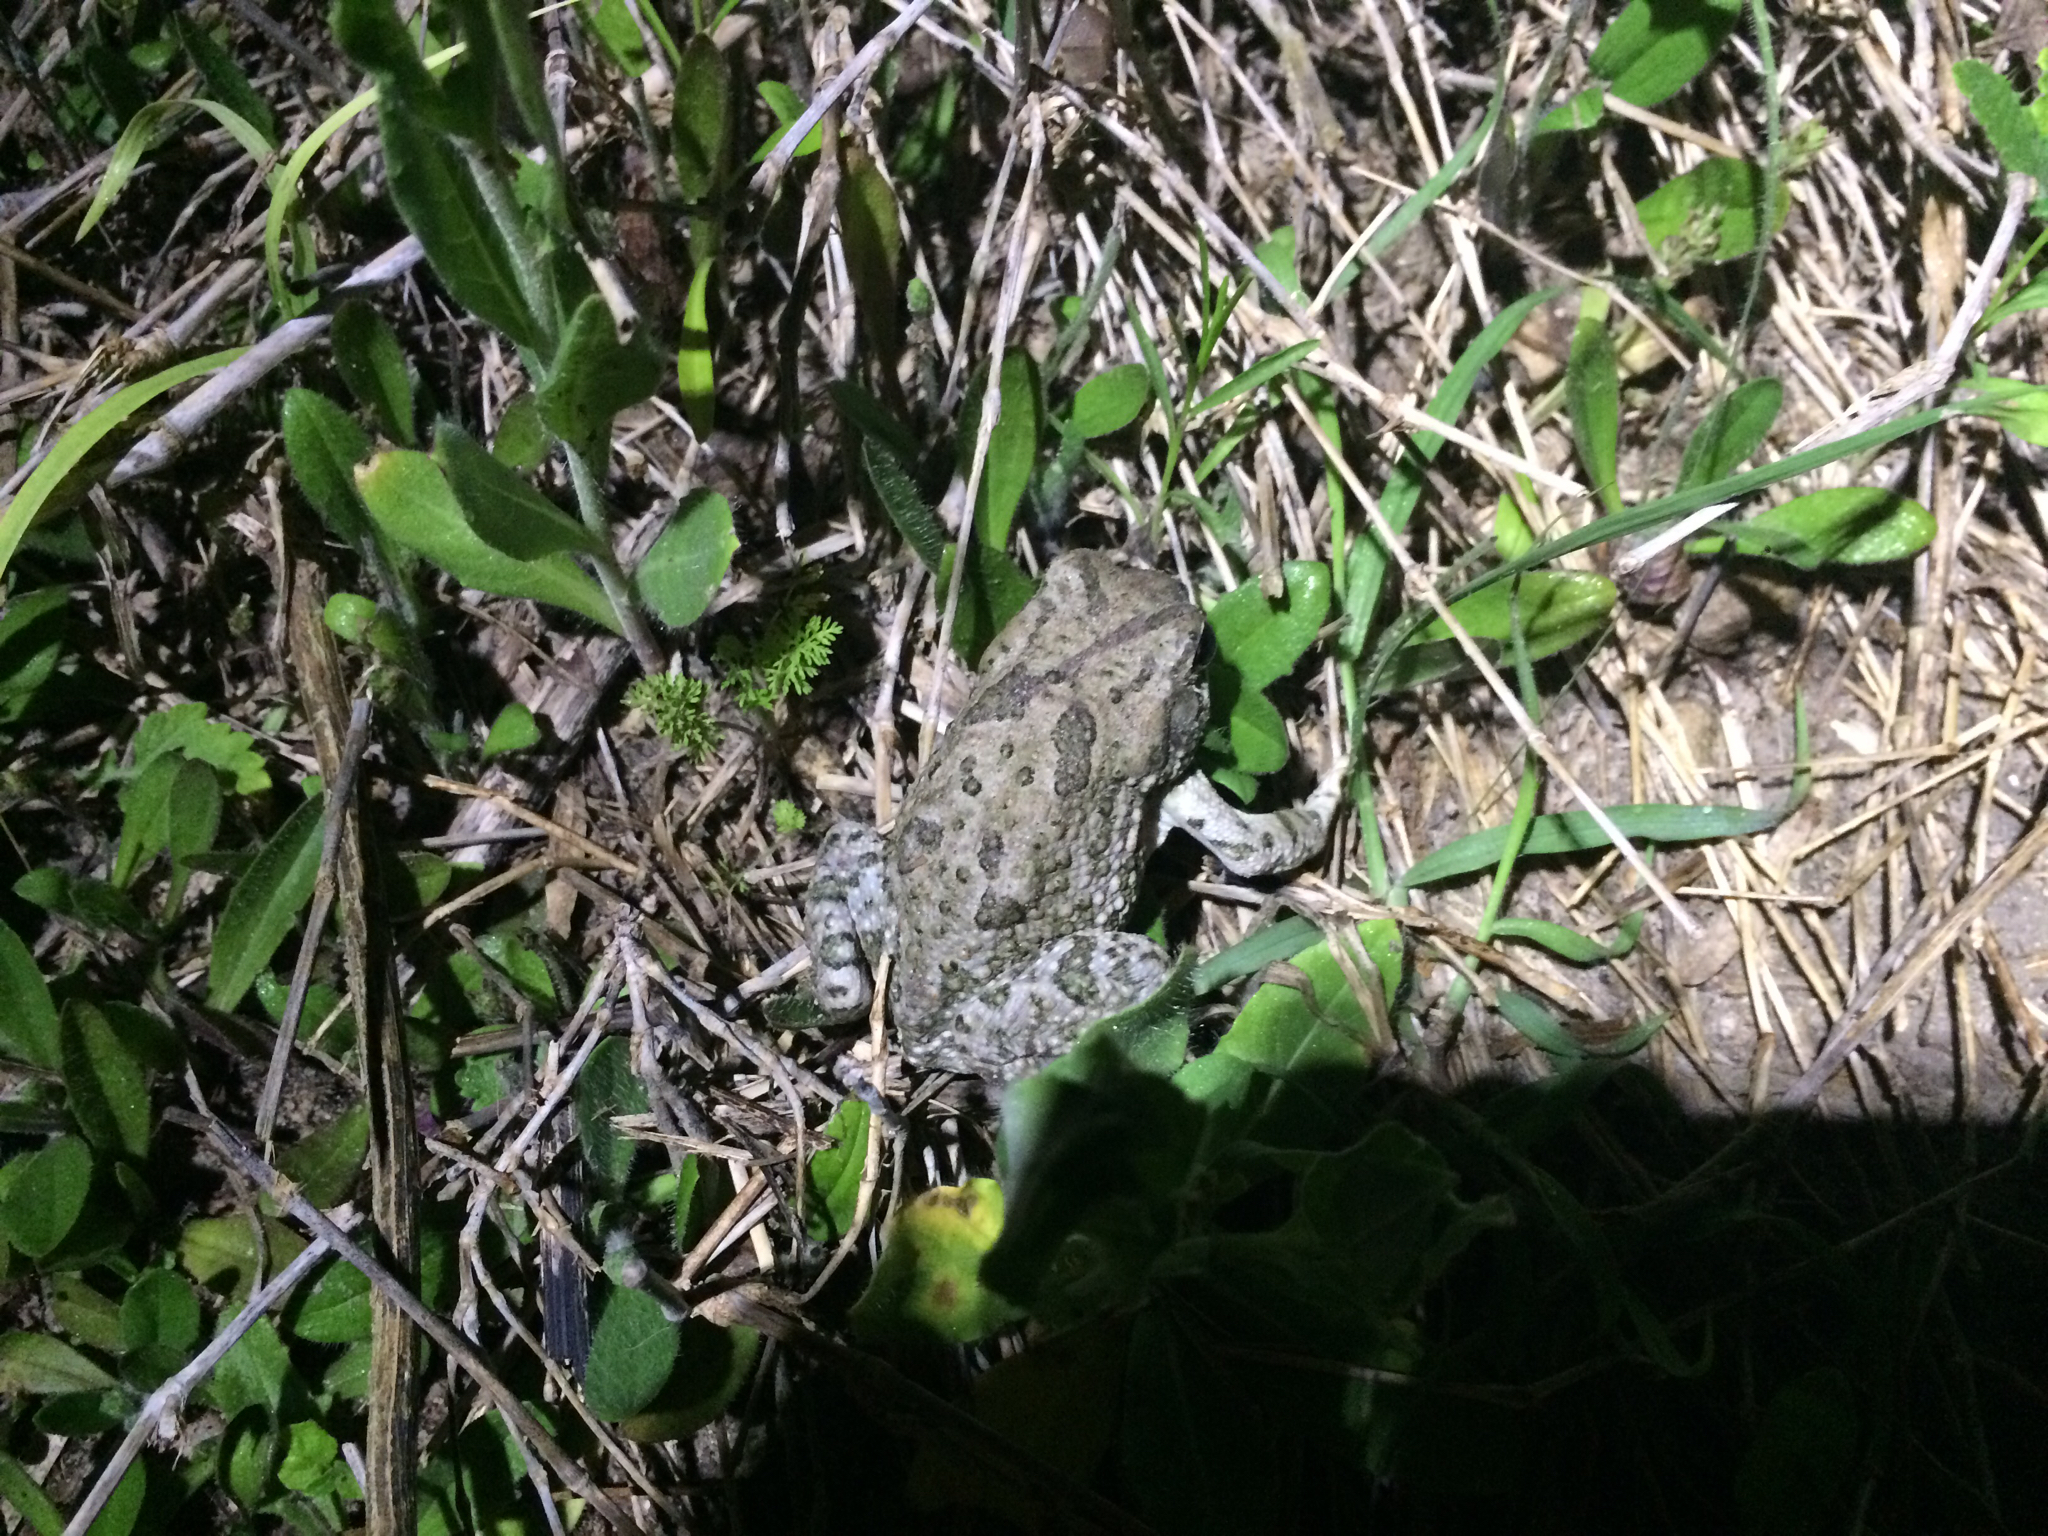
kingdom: Animalia
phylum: Chordata
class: Amphibia
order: Anura
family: Bufonidae
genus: Anaxyrus
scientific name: Anaxyrus speciosus
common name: Texas toad
